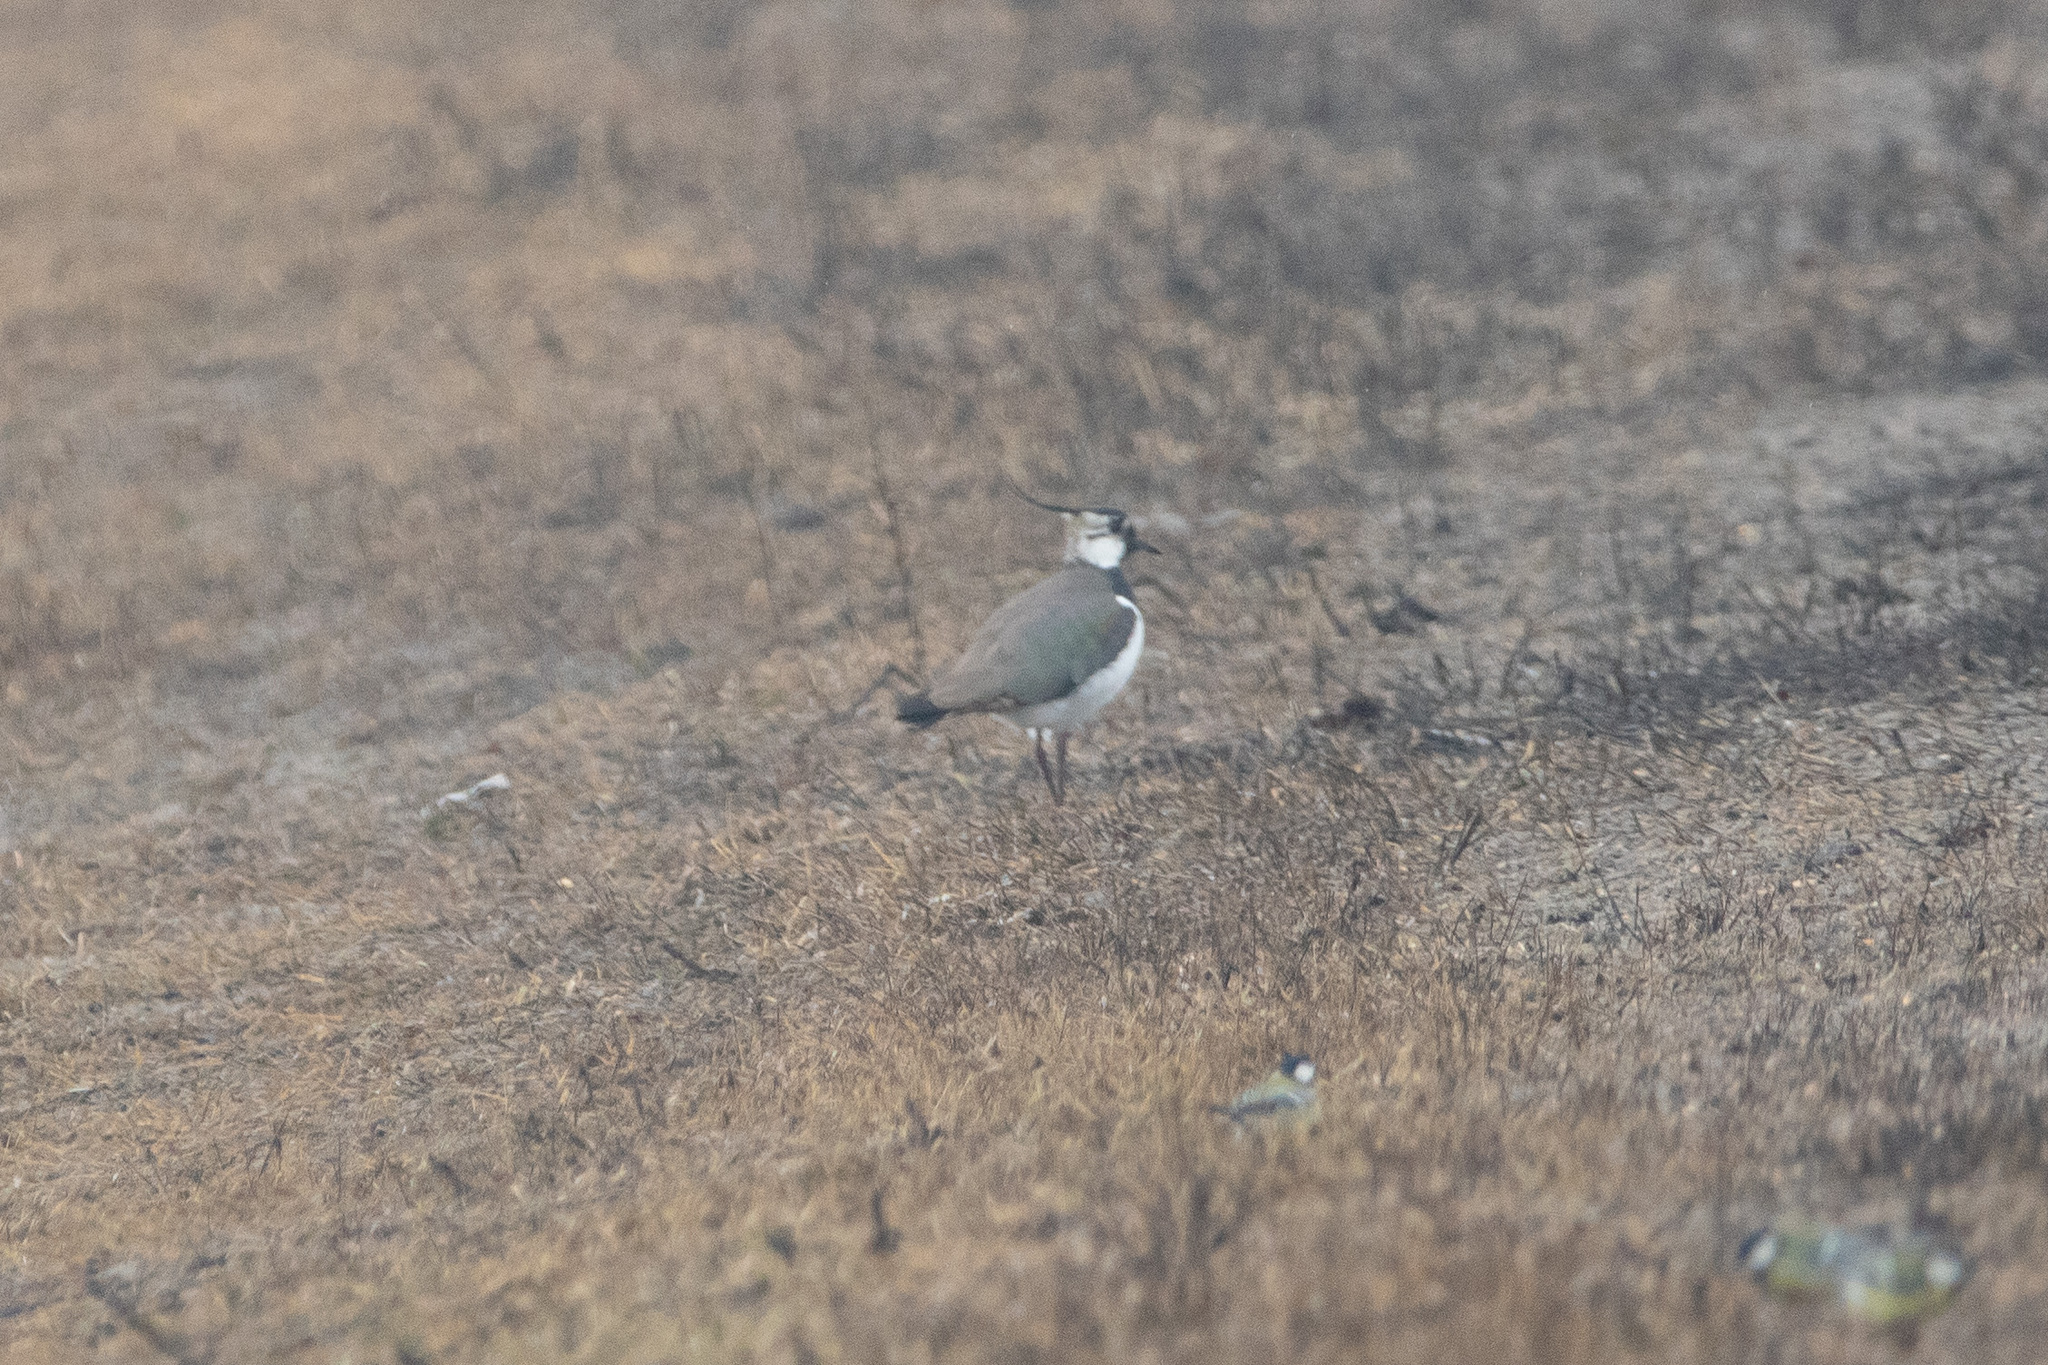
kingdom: Animalia
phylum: Chordata
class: Aves
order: Charadriiformes
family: Charadriidae
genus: Vanellus
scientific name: Vanellus vanellus
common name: Northern lapwing
